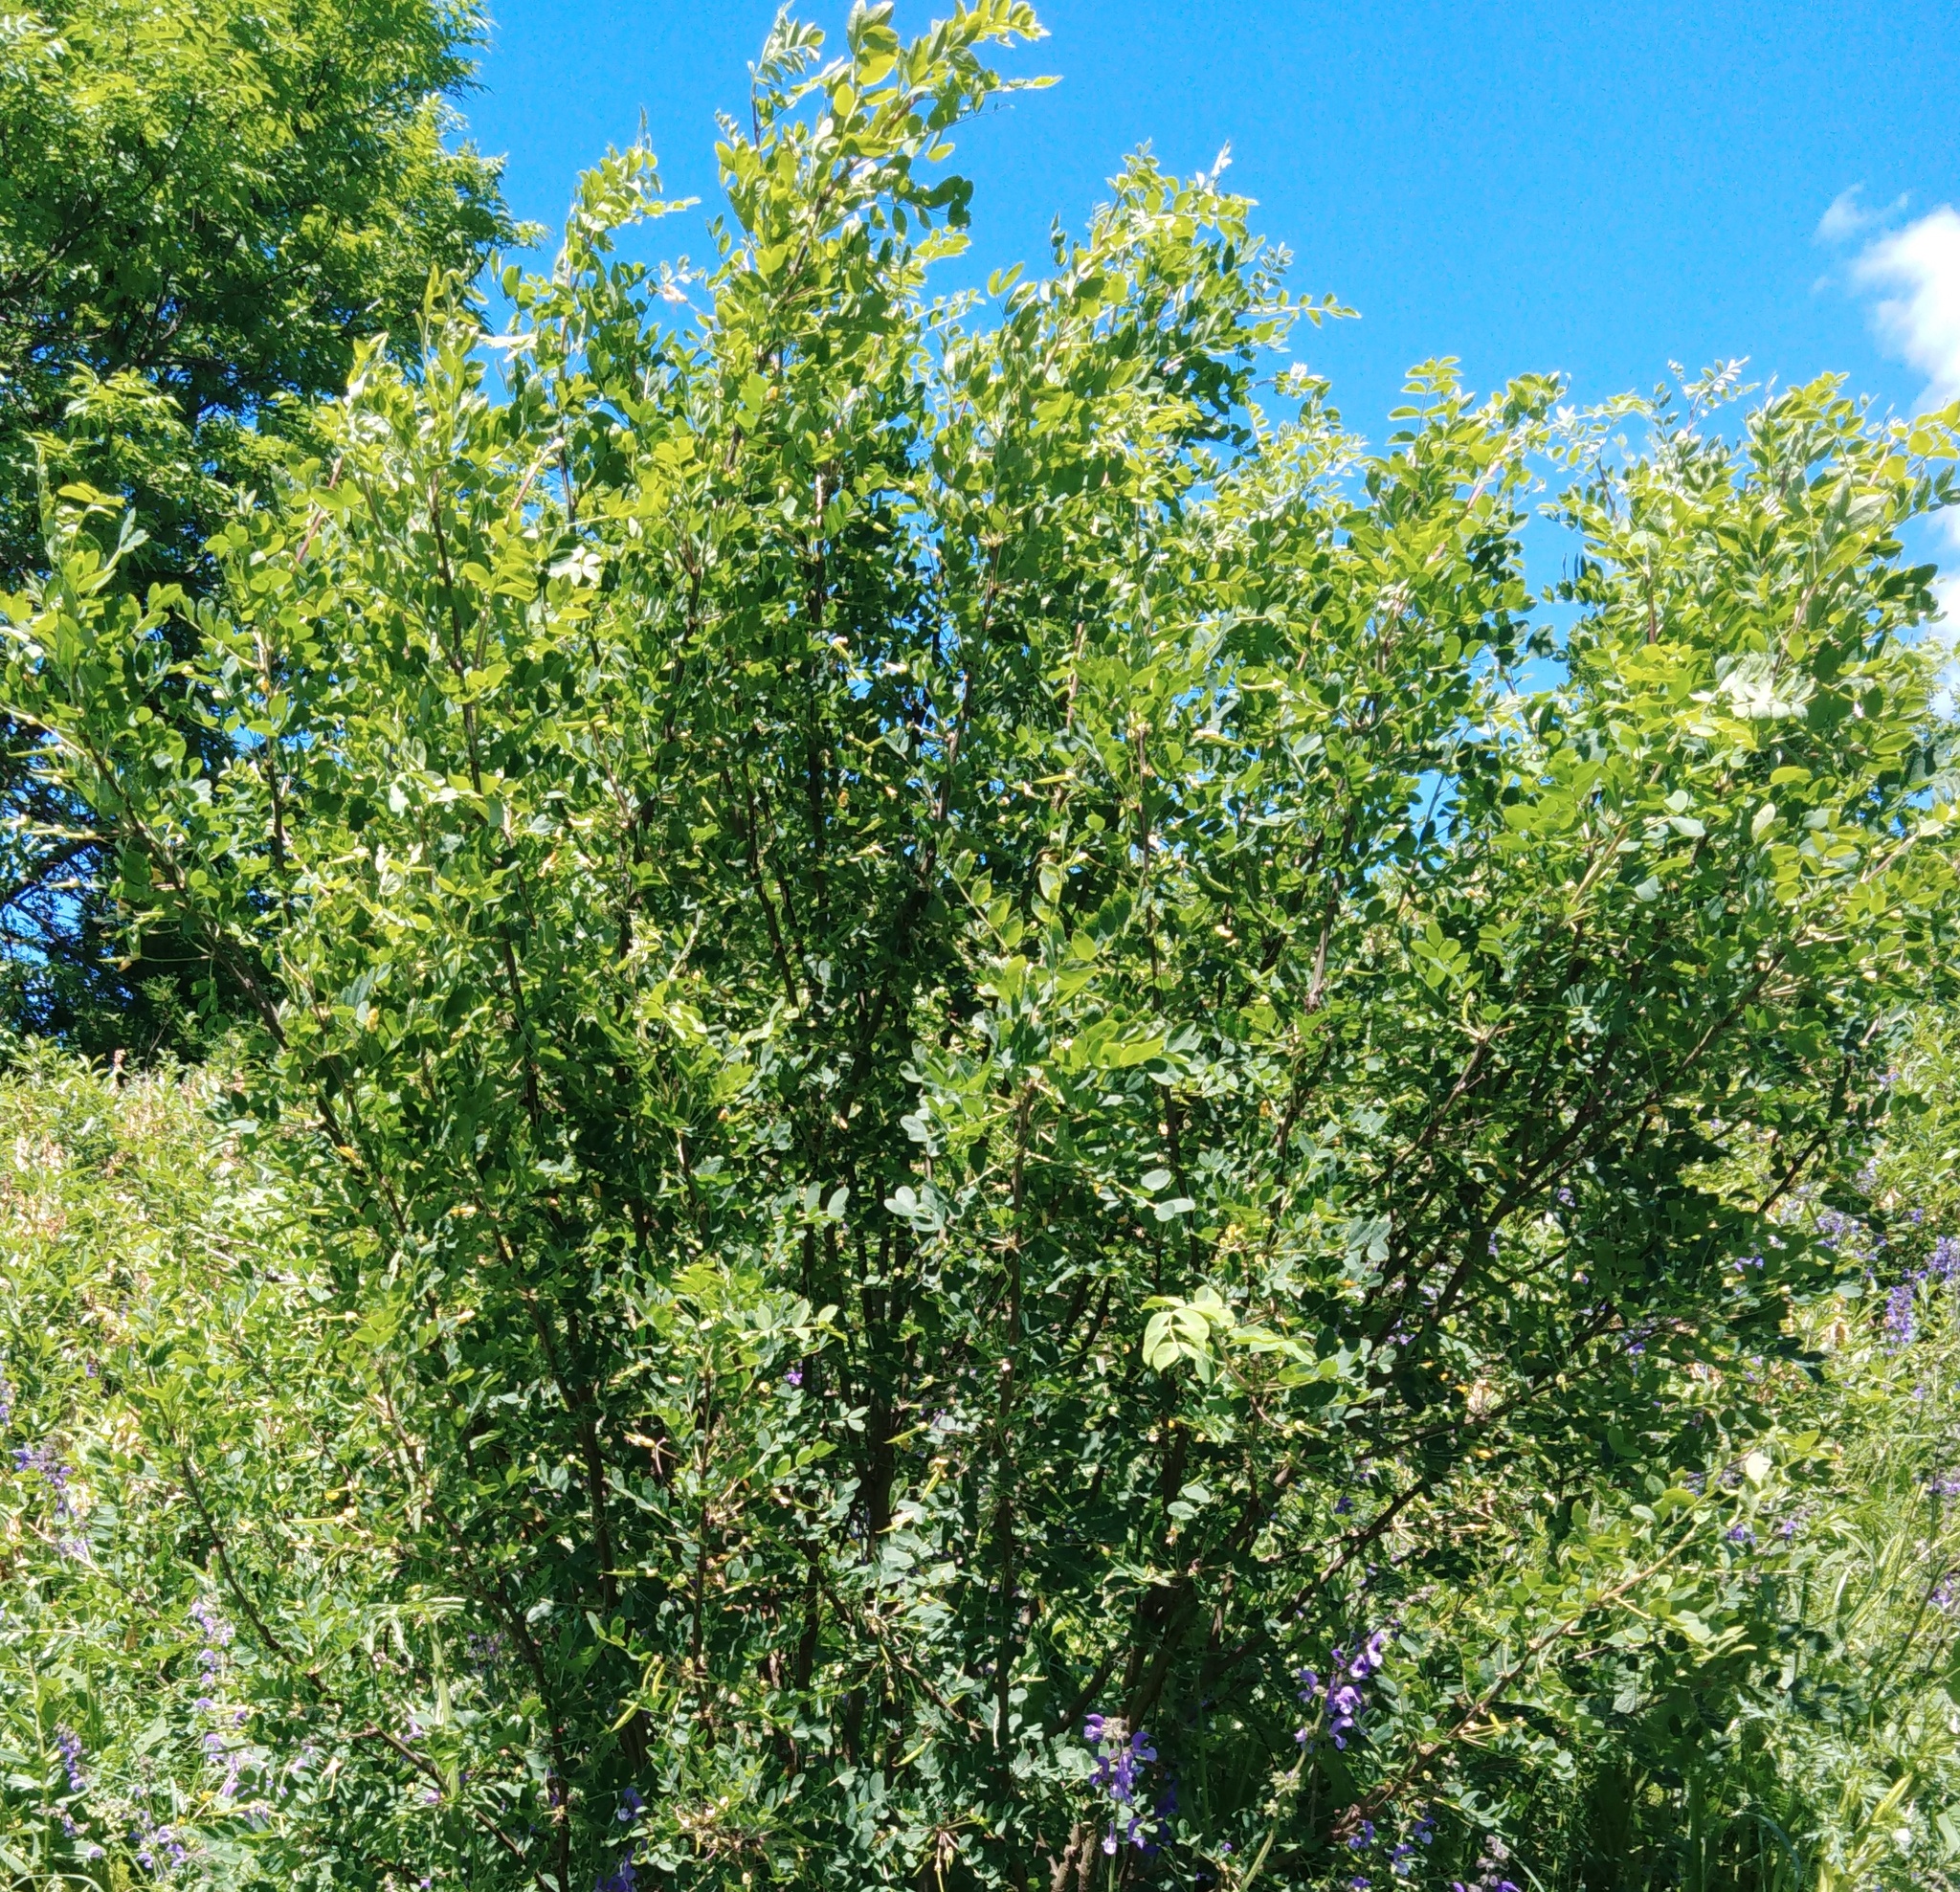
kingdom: Plantae
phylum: Tracheophyta
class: Magnoliopsida
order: Fabales
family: Fabaceae
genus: Caragana
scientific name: Caragana arborescens
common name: Siberian peashrub
